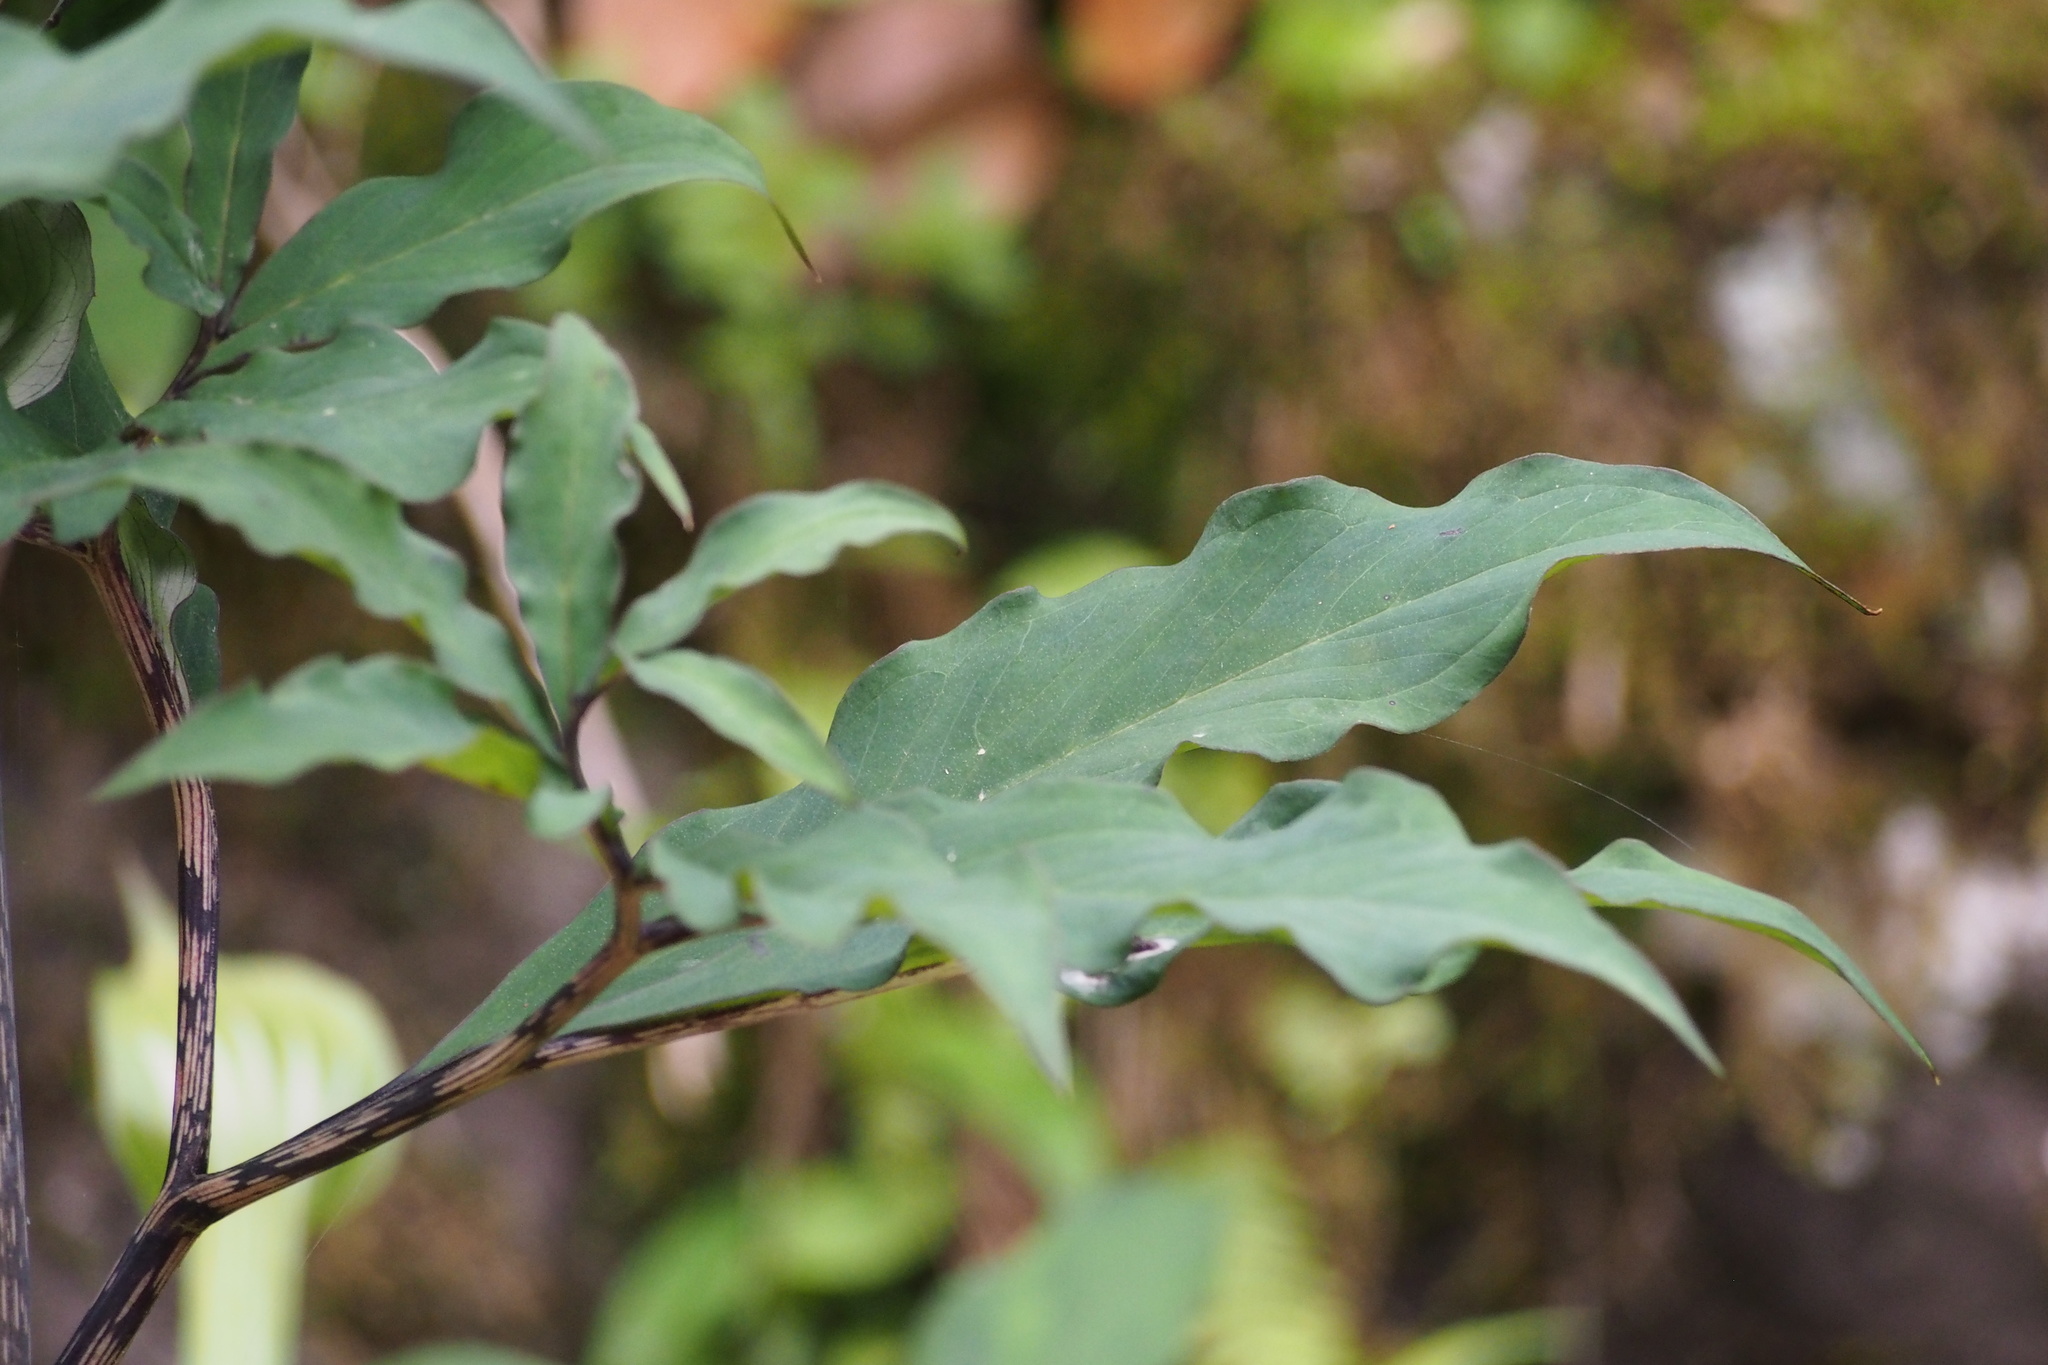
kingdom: Plantae
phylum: Tracheophyta
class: Liliopsida
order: Alismatales
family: Araceae
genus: Arisaema
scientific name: Arisaema angustatum
